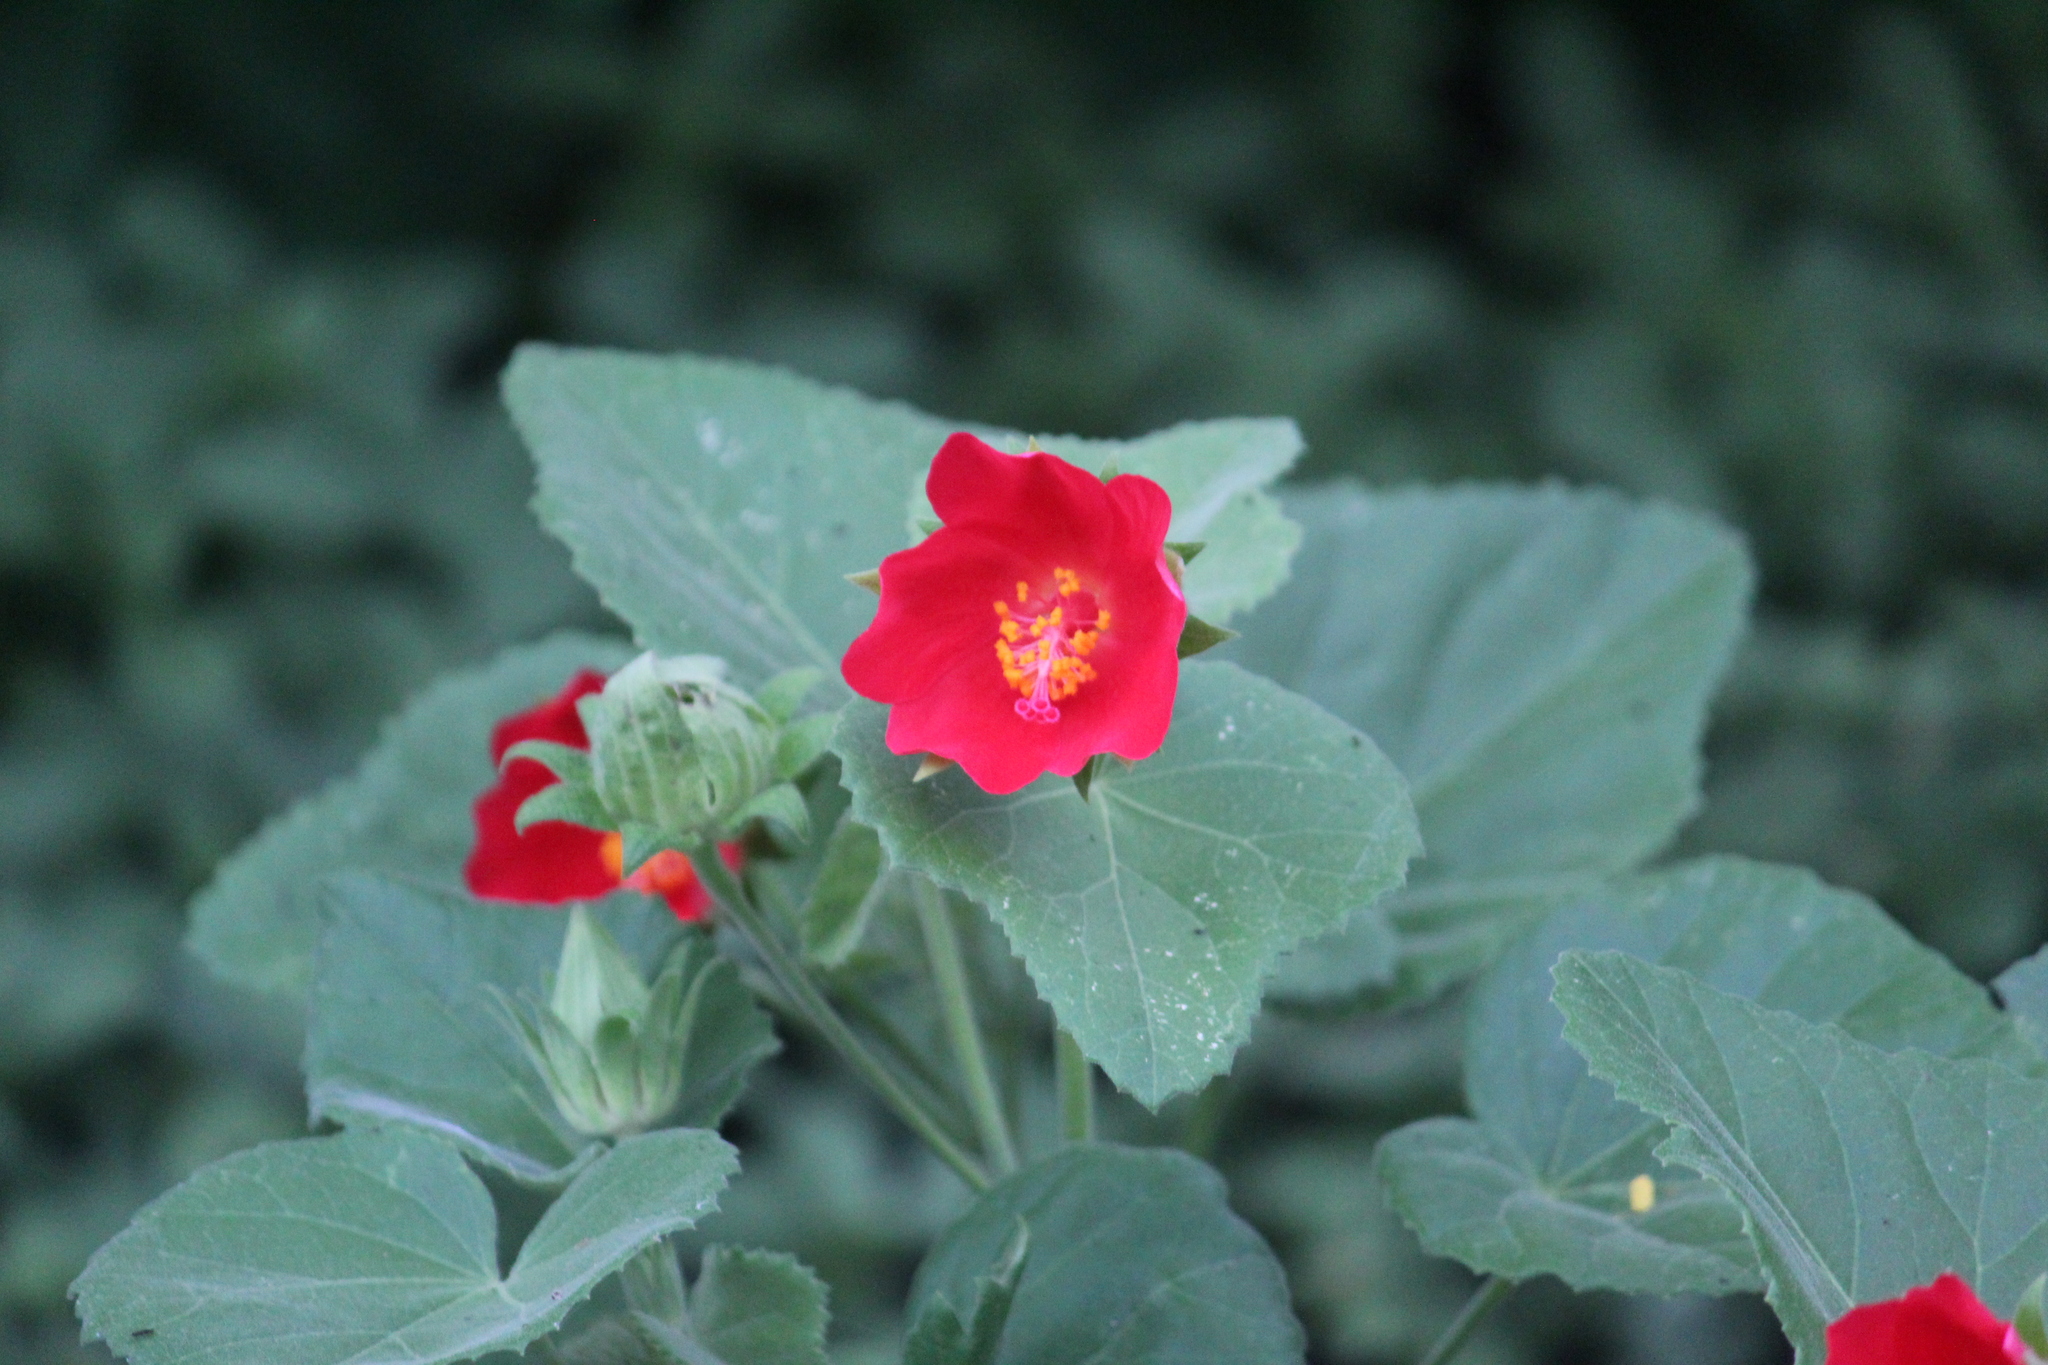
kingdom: Plantae
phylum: Tracheophyta
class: Magnoliopsida
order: Malvales
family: Malvaceae
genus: Hibiscus
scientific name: Hibiscus martianus
